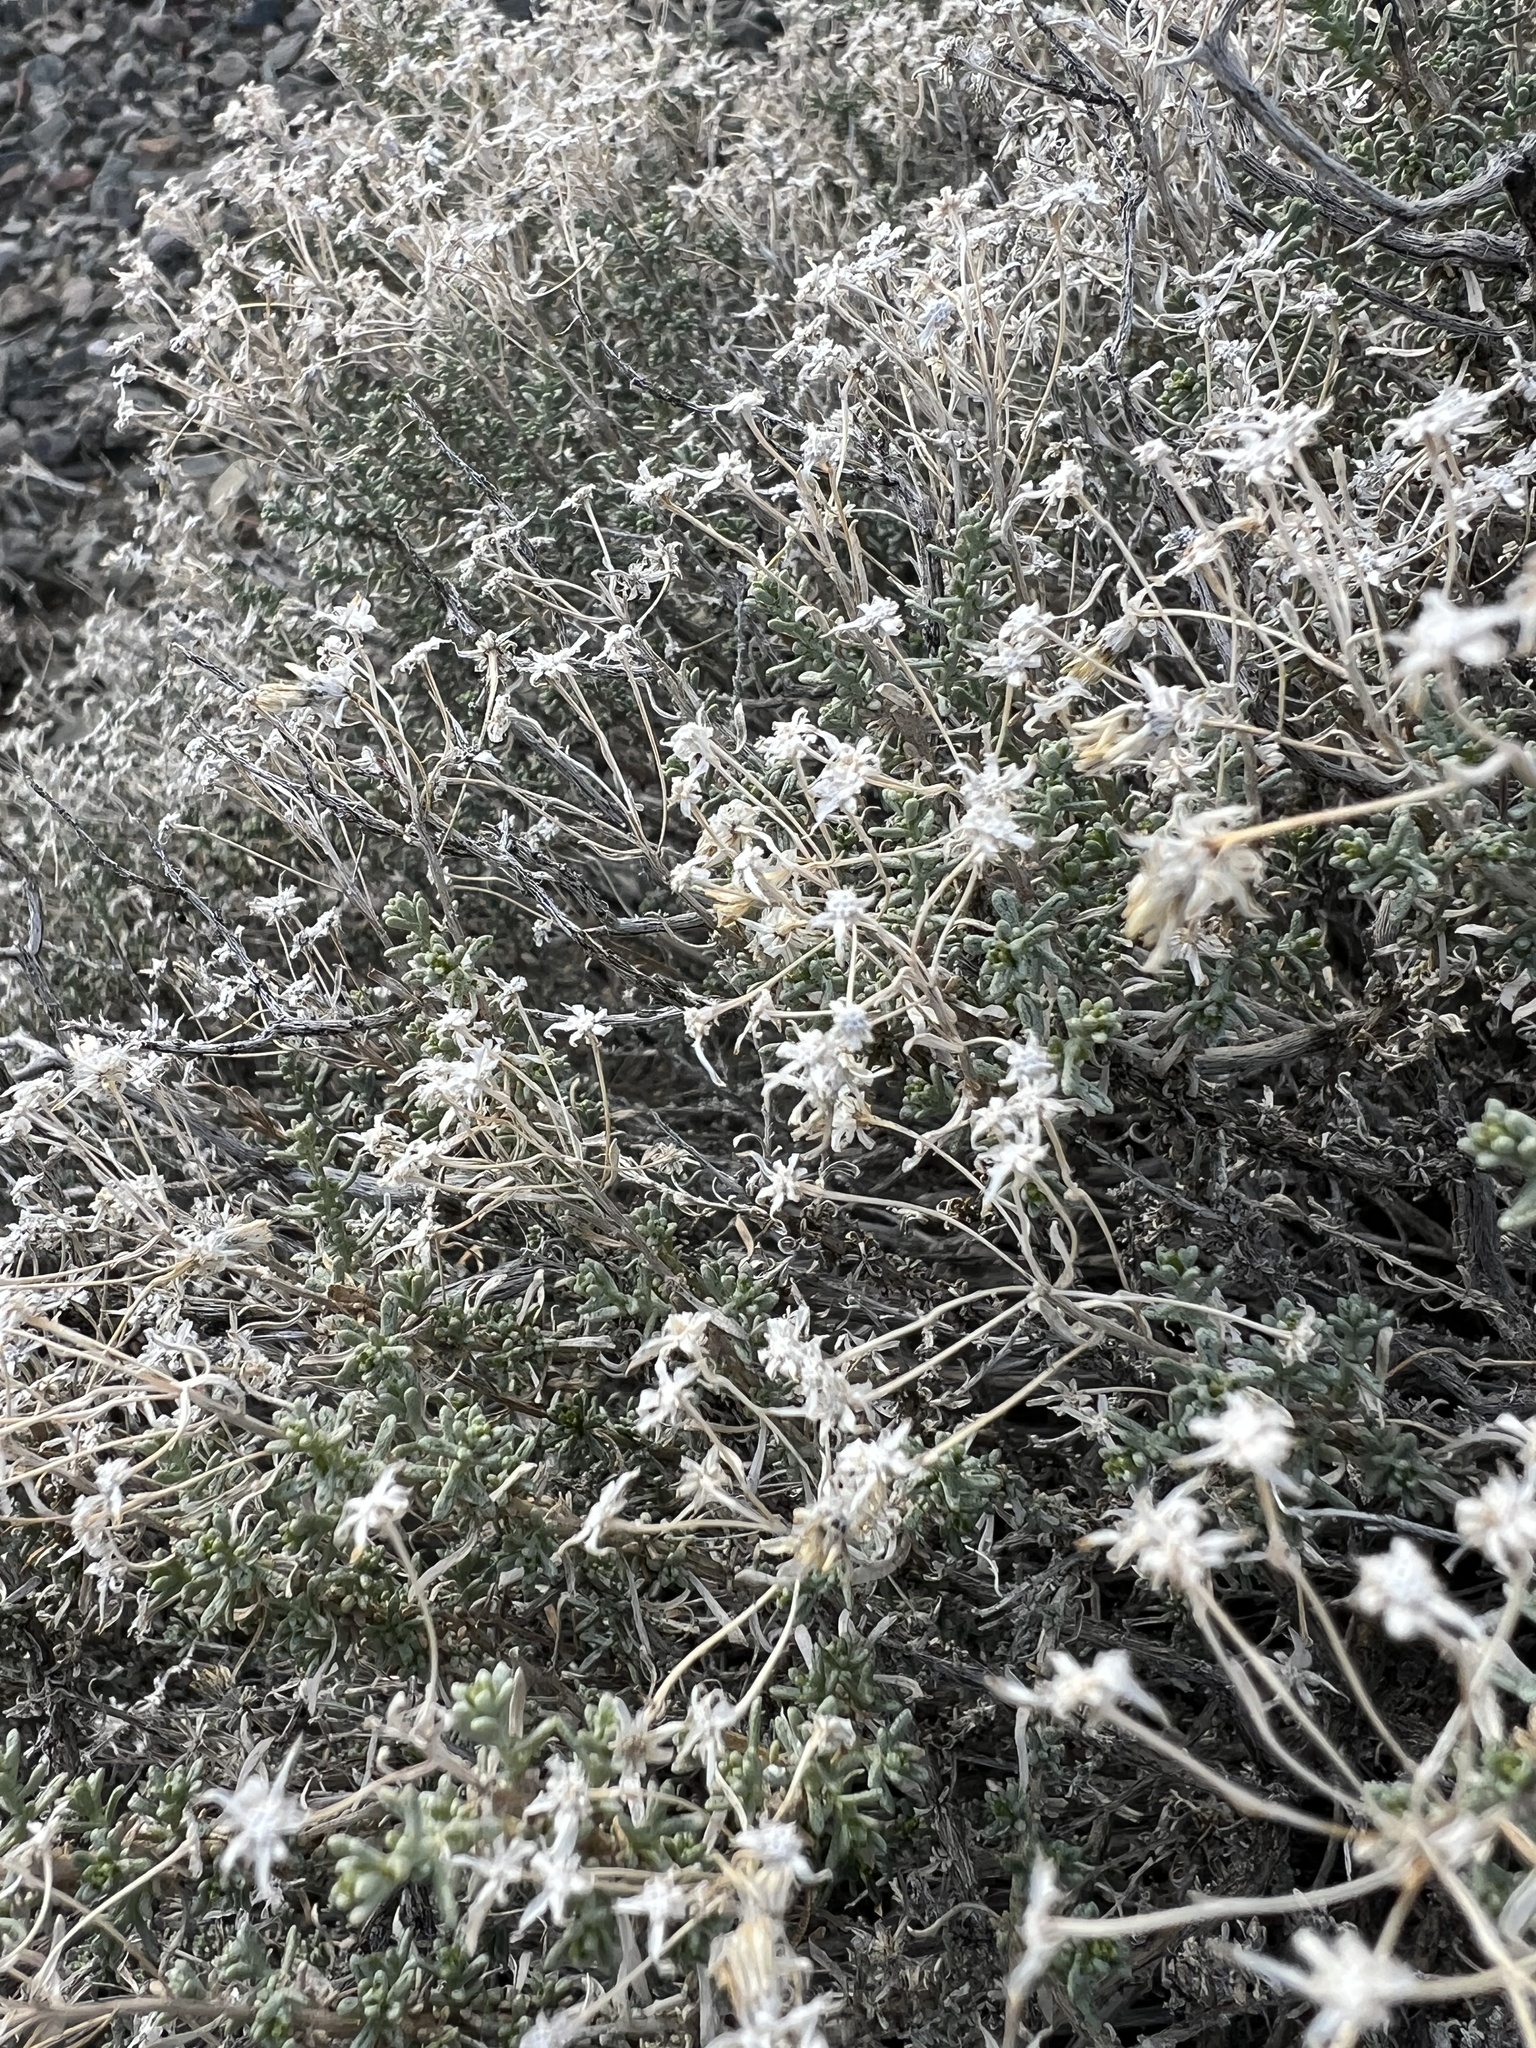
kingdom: Plantae
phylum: Tracheophyta
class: Magnoliopsida
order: Asterales
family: Asteraceae
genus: Ericameria
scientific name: Ericameria cooperi
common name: Cooper's goldenbush
